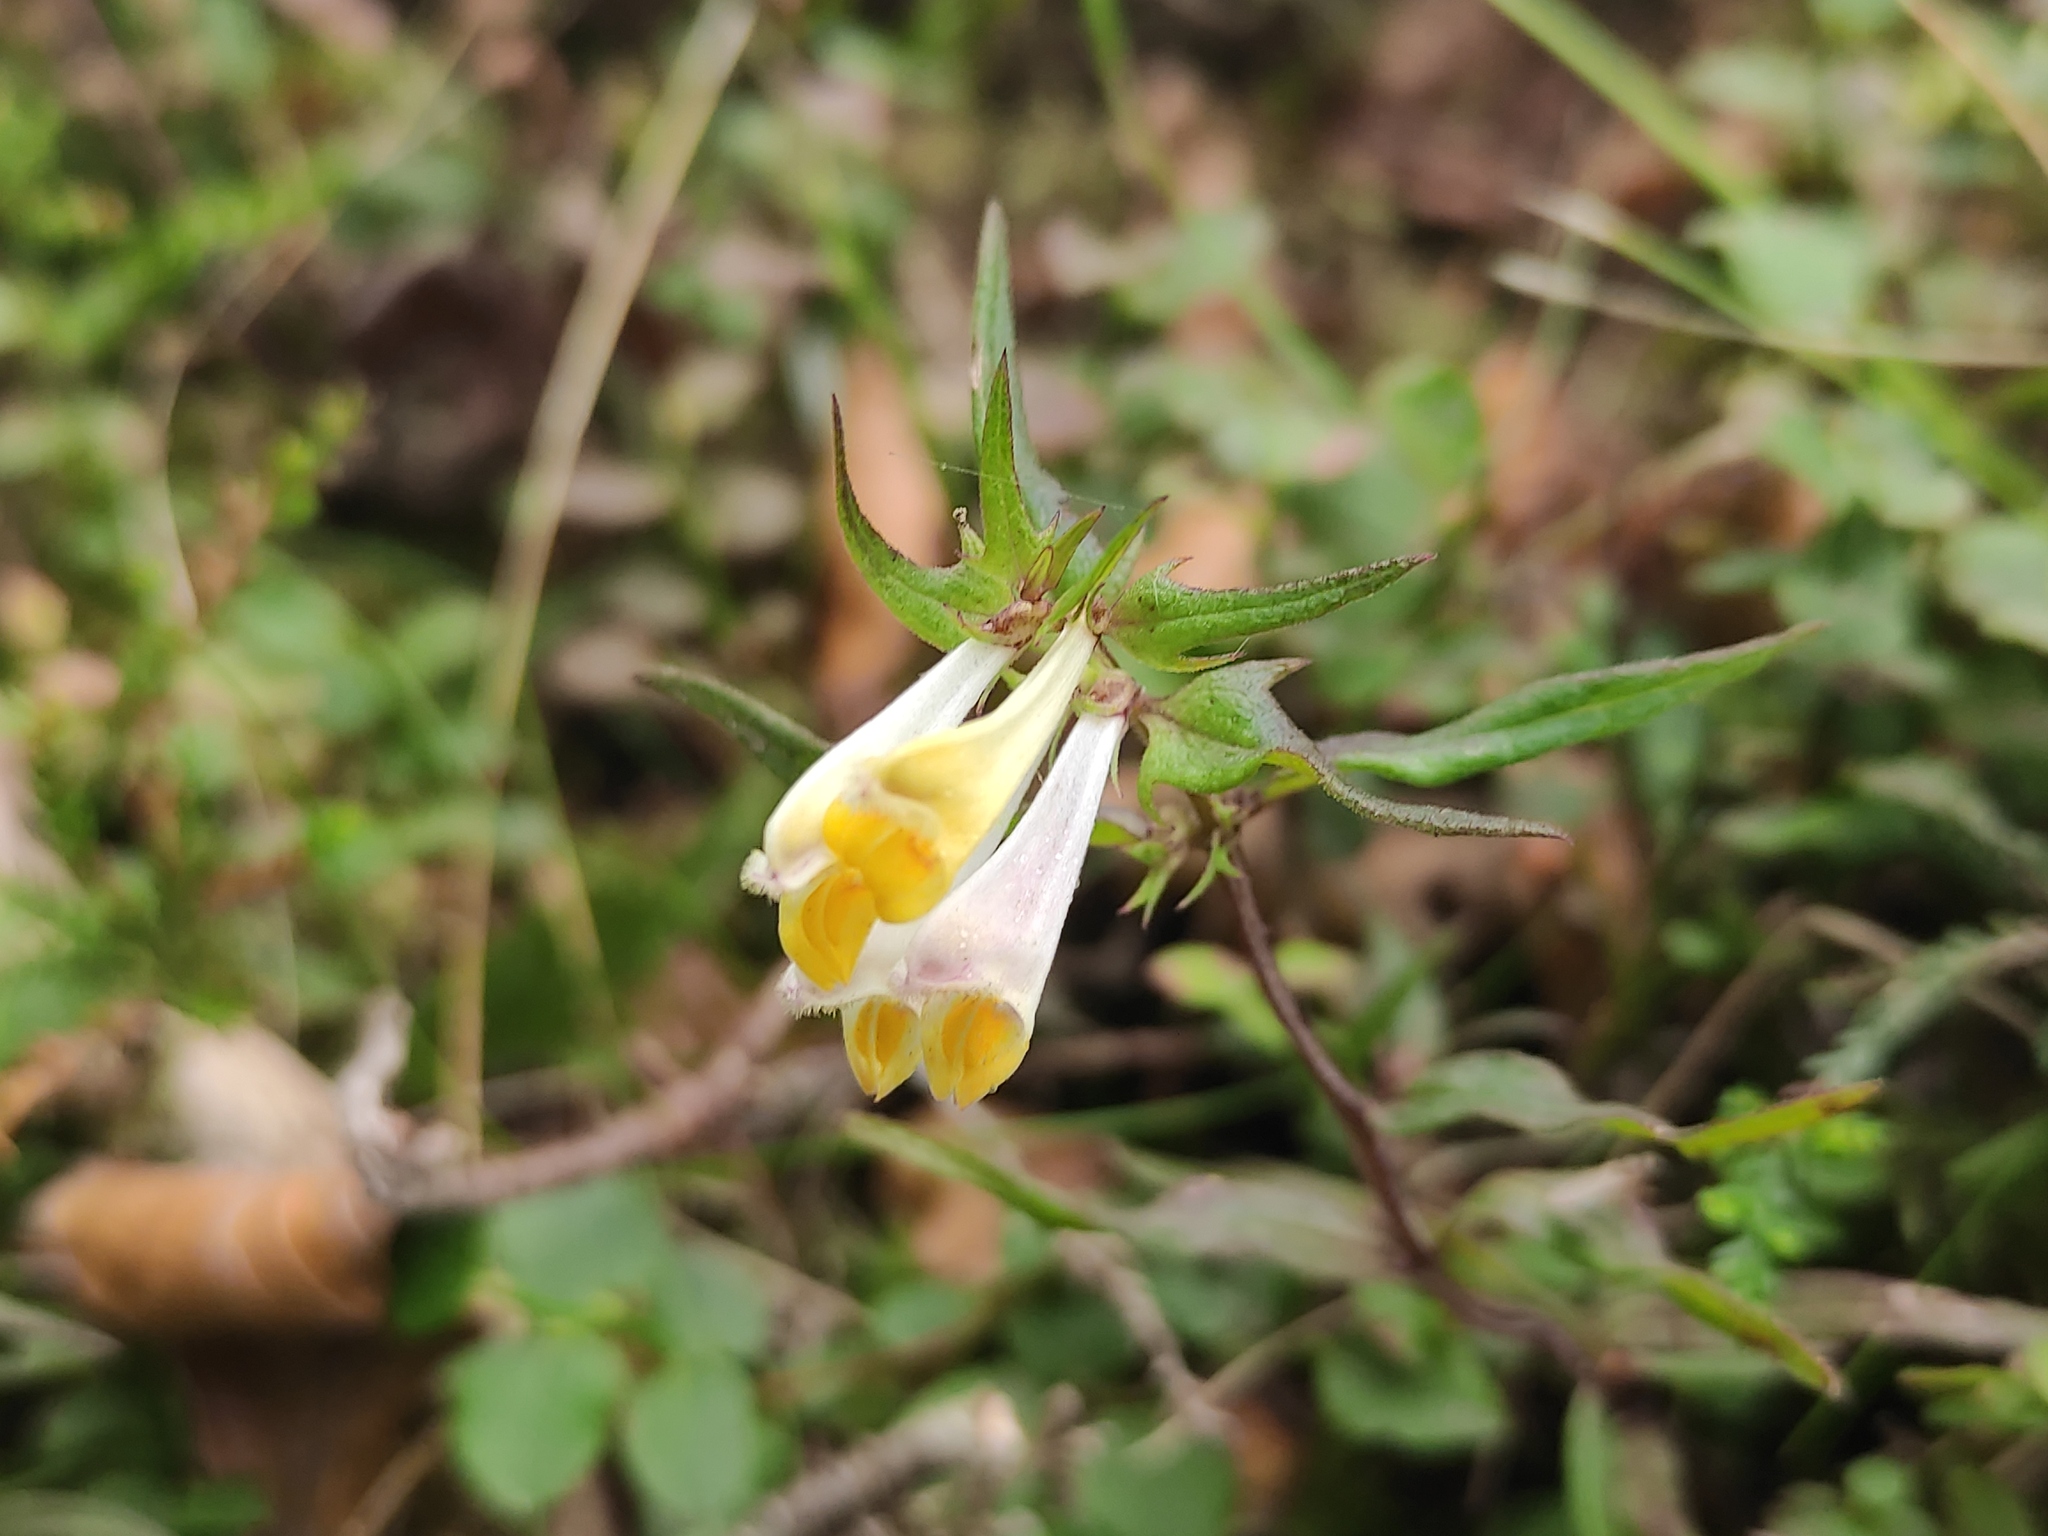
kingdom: Plantae
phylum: Tracheophyta
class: Magnoliopsida
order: Lamiales
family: Orobanchaceae
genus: Melampyrum
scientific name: Melampyrum pratense
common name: Common cow-wheat
